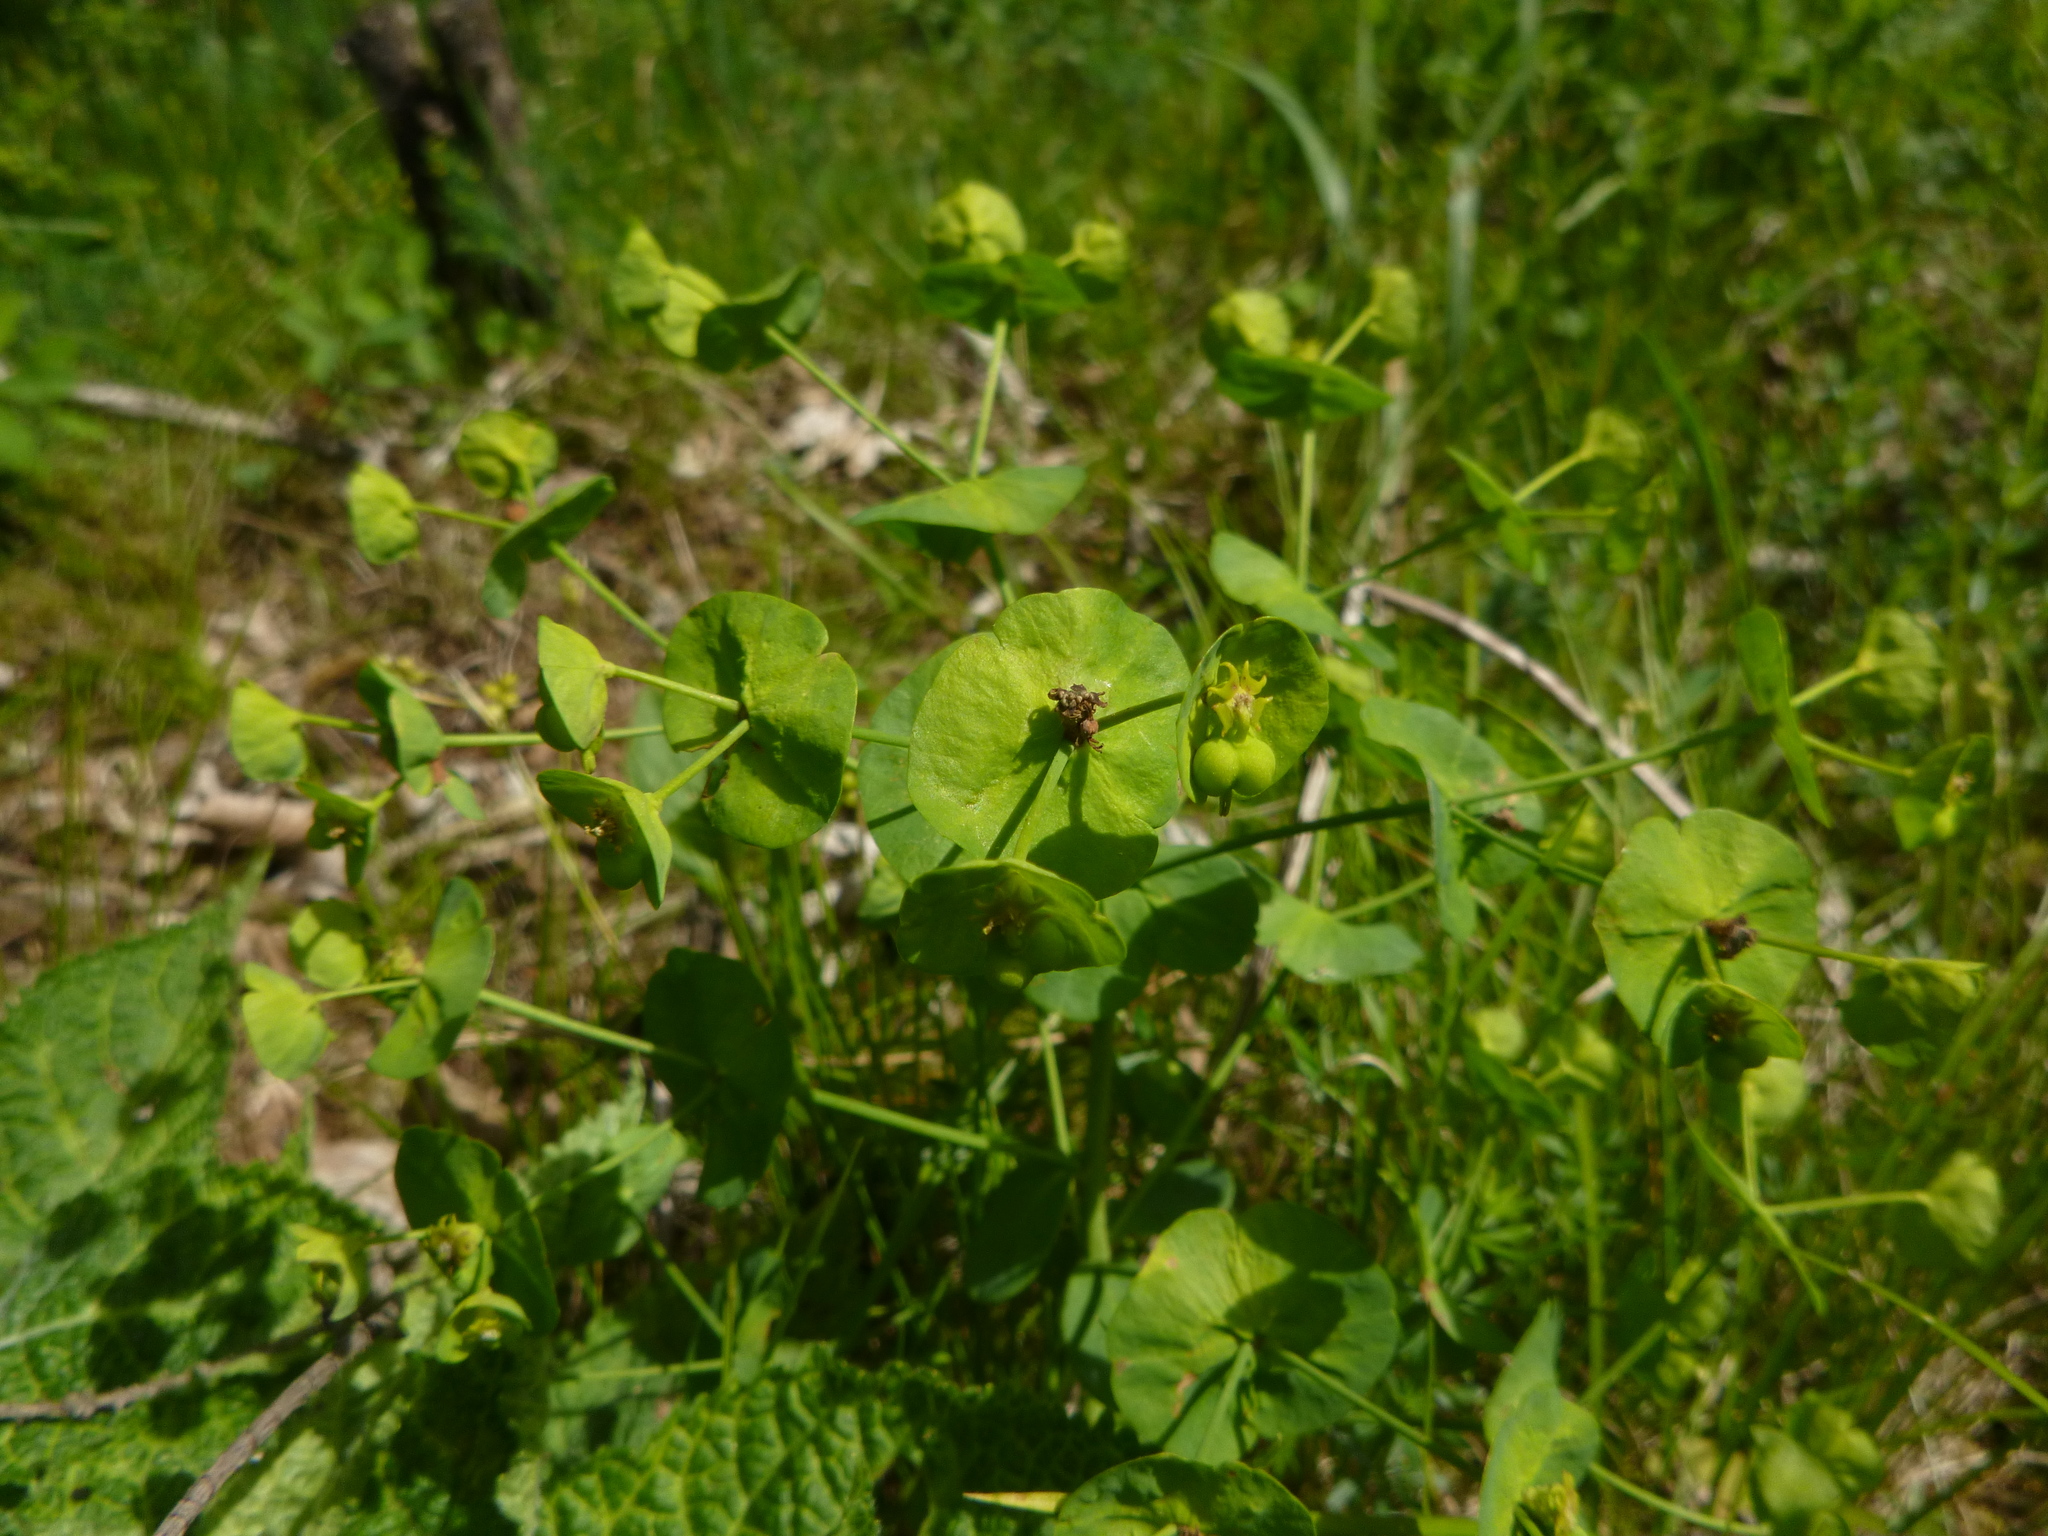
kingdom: Plantae
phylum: Tracheophyta
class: Magnoliopsida
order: Malpighiales
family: Euphorbiaceae
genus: Euphorbia
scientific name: Euphorbia amygdaloides
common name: Wood spurge
